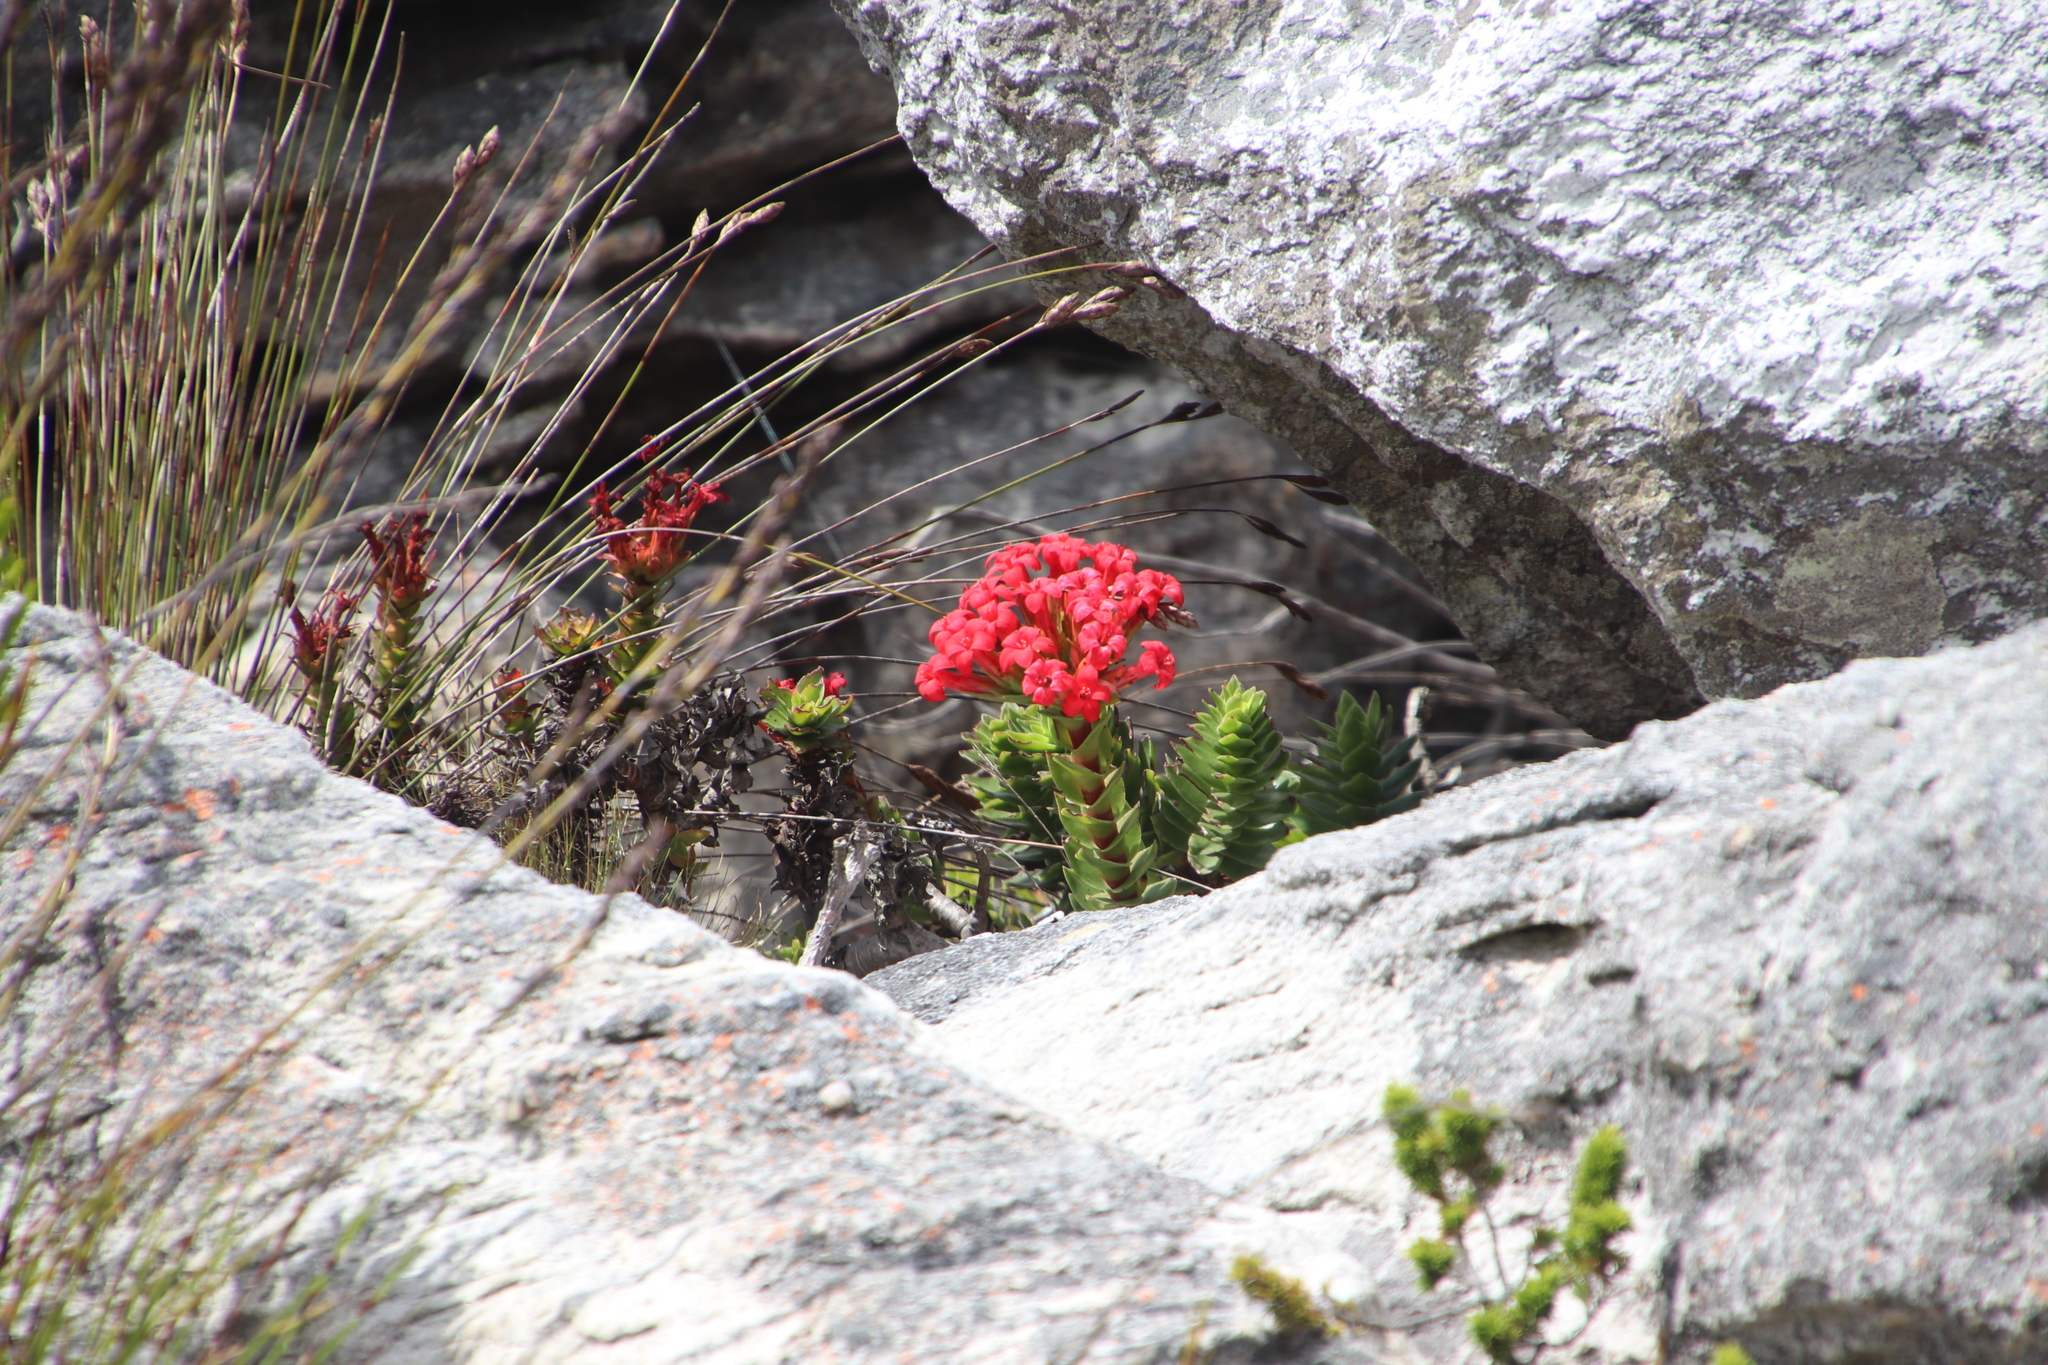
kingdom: Plantae
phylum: Tracheophyta
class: Magnoliopsida
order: Saxifragales
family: Crassulaceae
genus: Crassula
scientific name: Crassula coccinea
